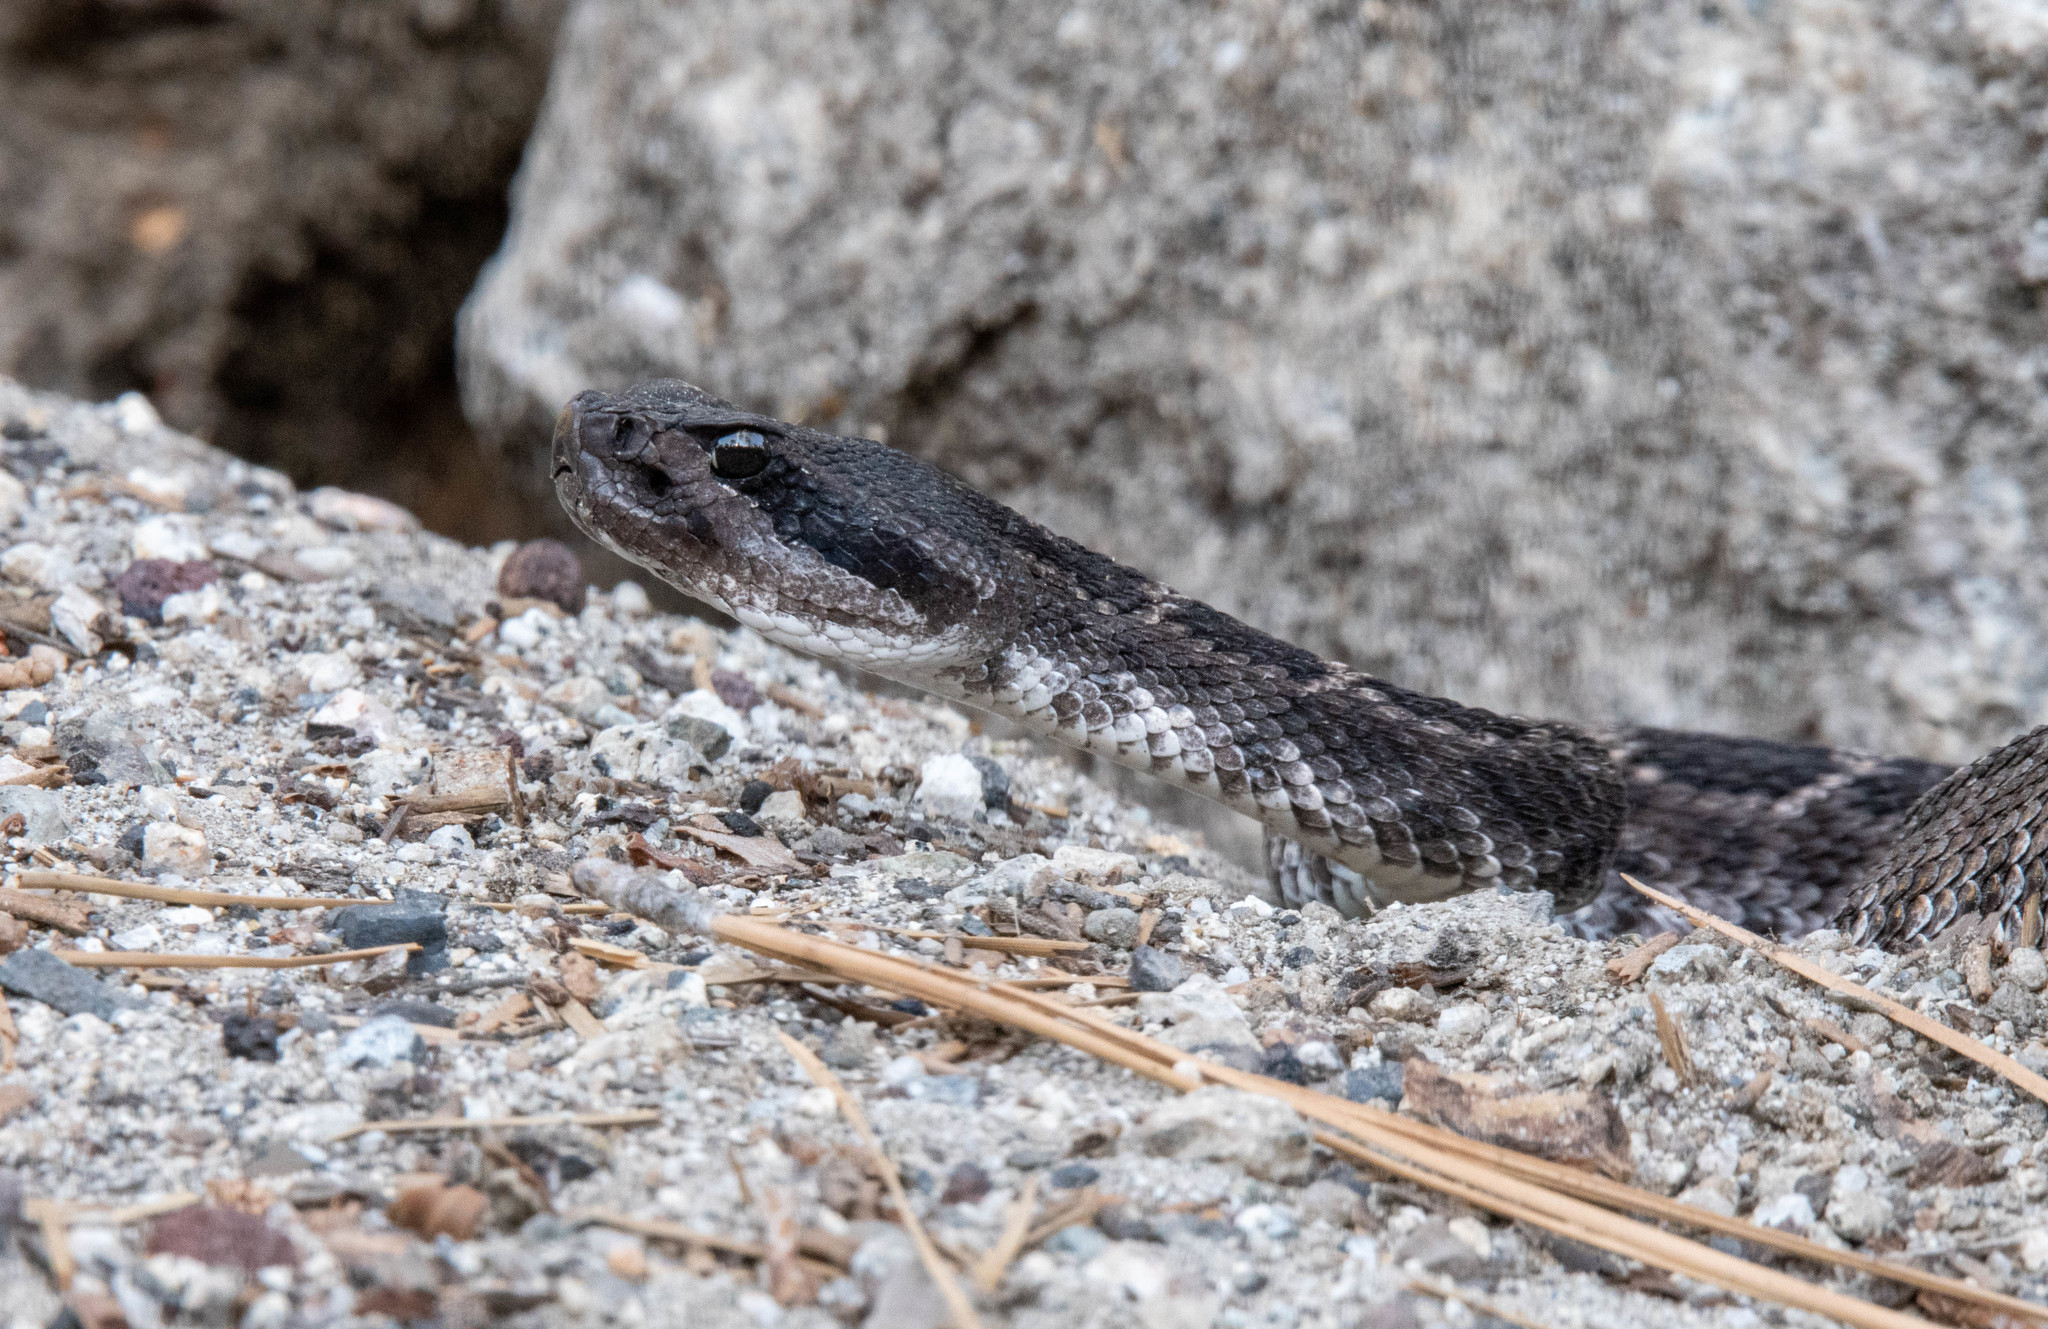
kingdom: Animalia
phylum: Chordata
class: Squamata
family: Viperidae
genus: Crotalus
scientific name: Crotalus oreganus
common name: Abyssus
